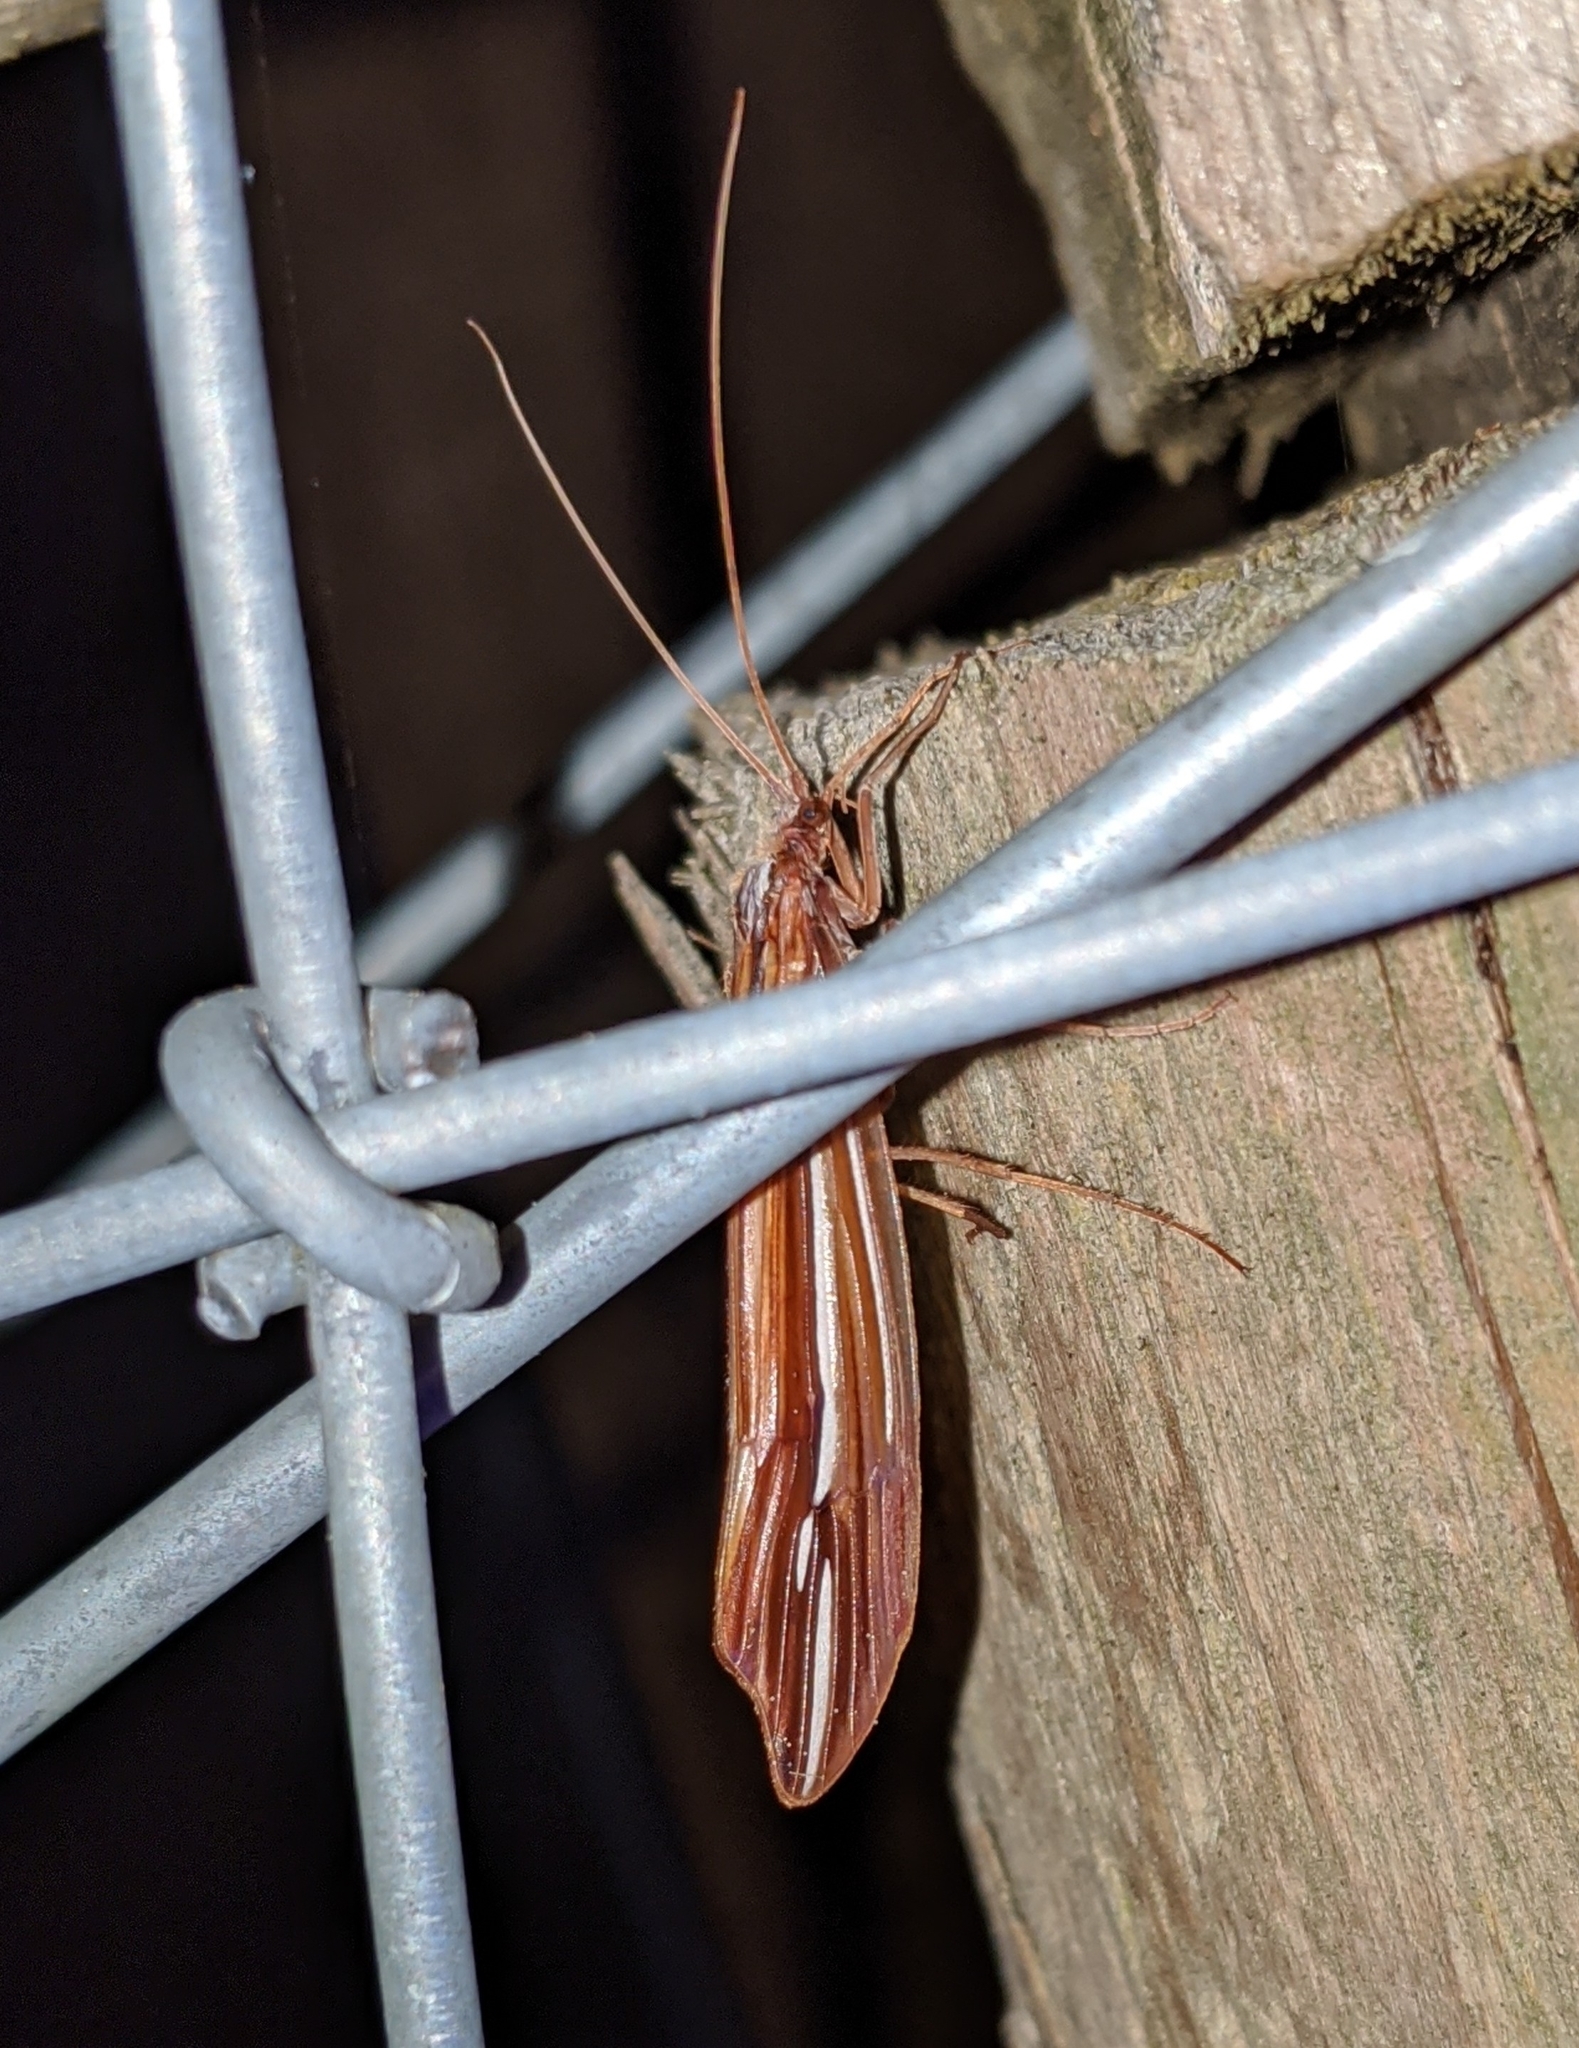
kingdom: Animalia
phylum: Arthropoda
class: Insecta
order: Trichoptera
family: Limnephilidae
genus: Psychoglypha
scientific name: Psychoglypha bella
